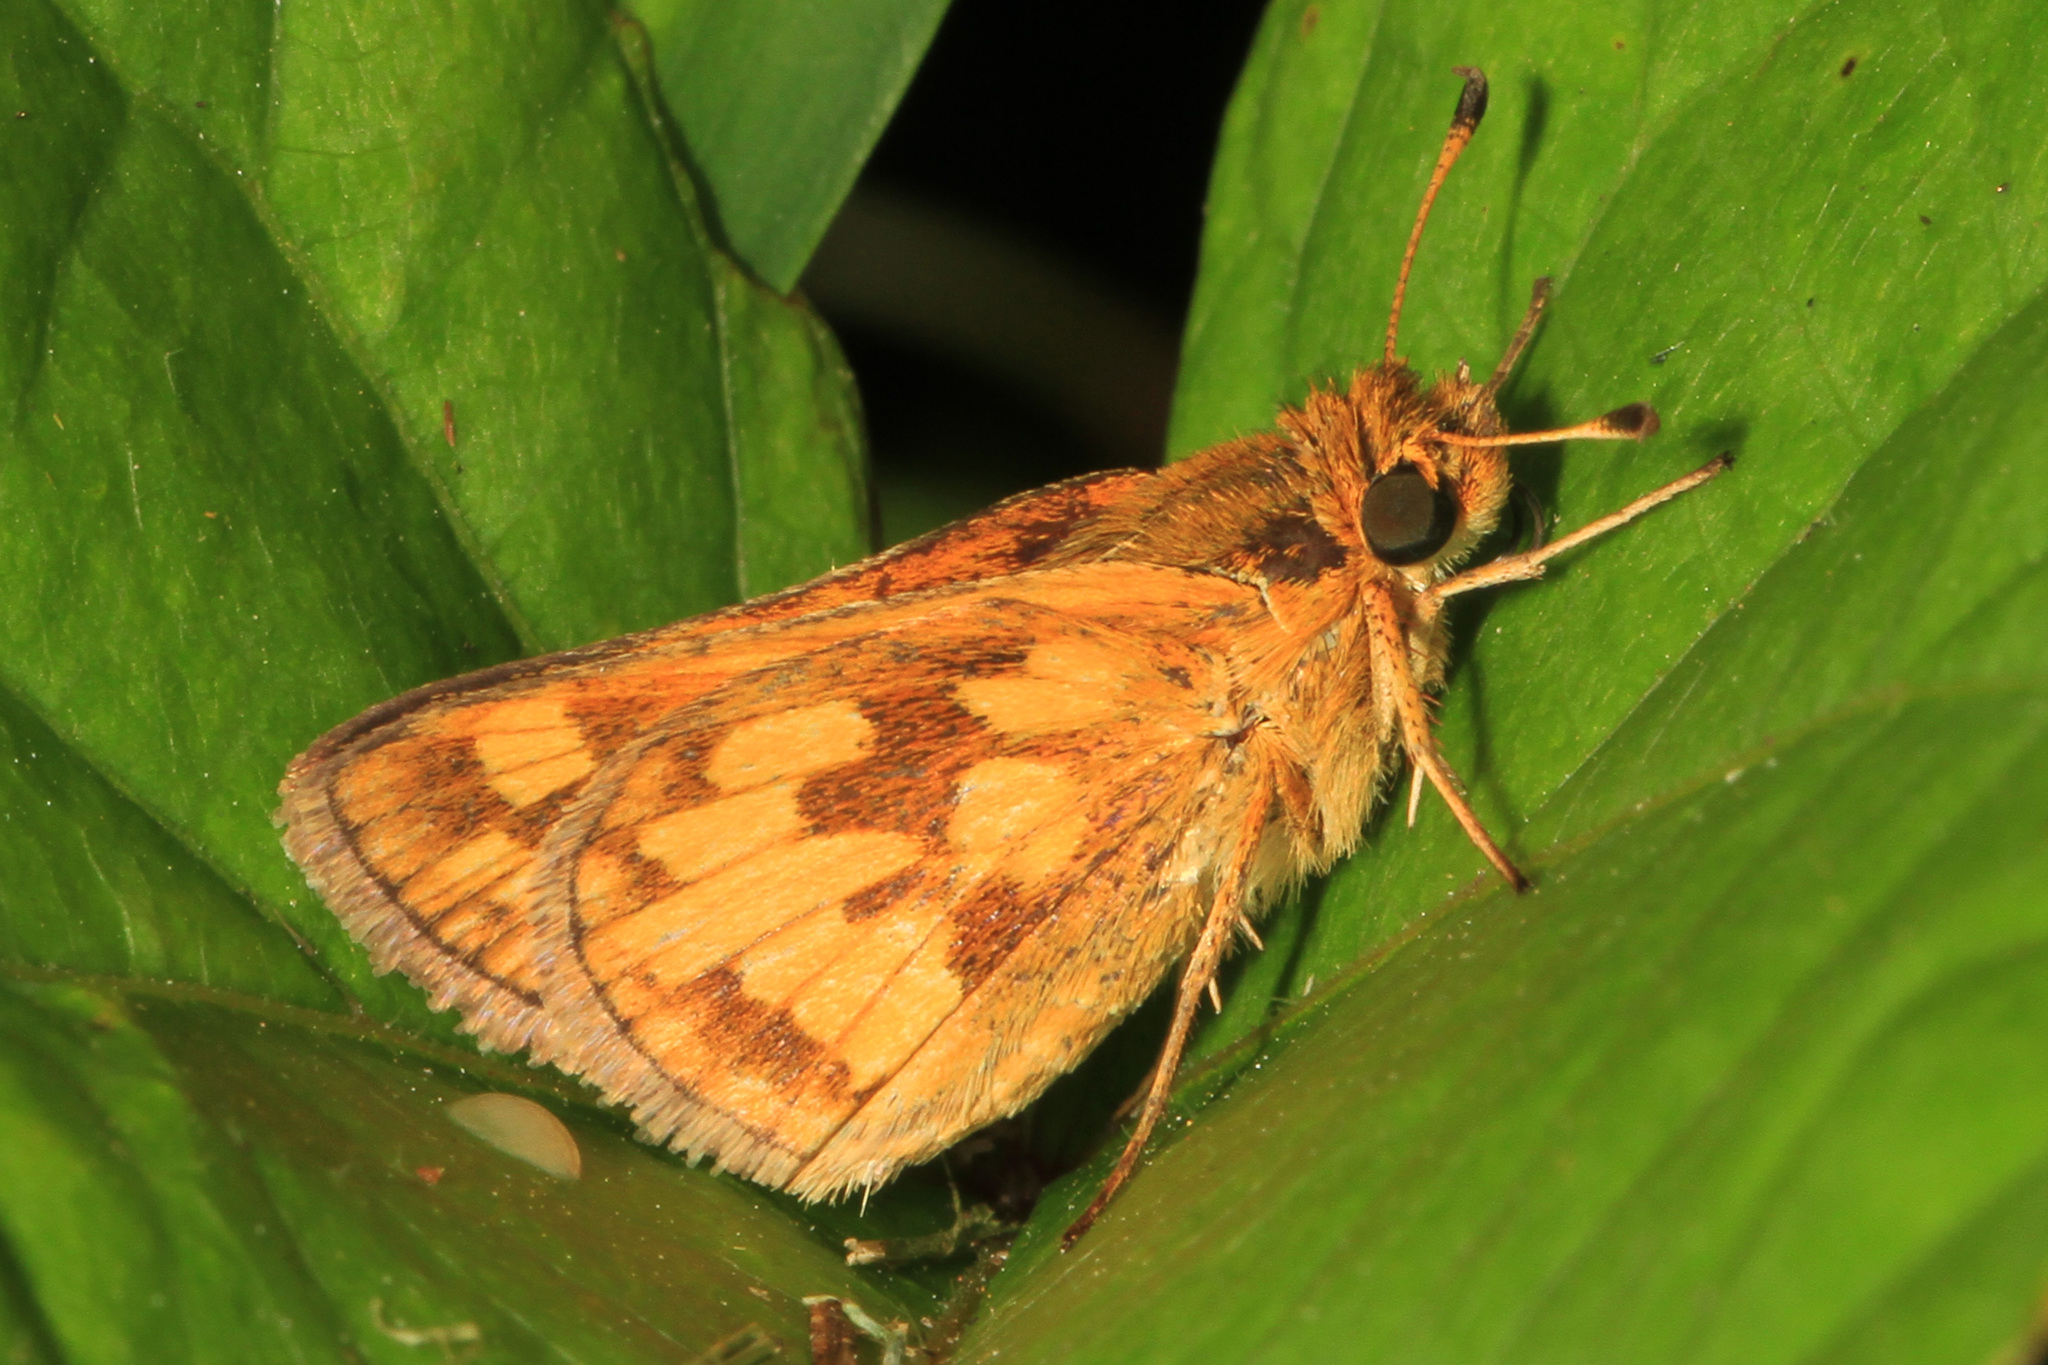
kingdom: Animalia
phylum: Arthropoda
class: Insecta
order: Lepidoptera
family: Hesperiidae
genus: Polites
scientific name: Polites coras
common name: Peck's skipper
